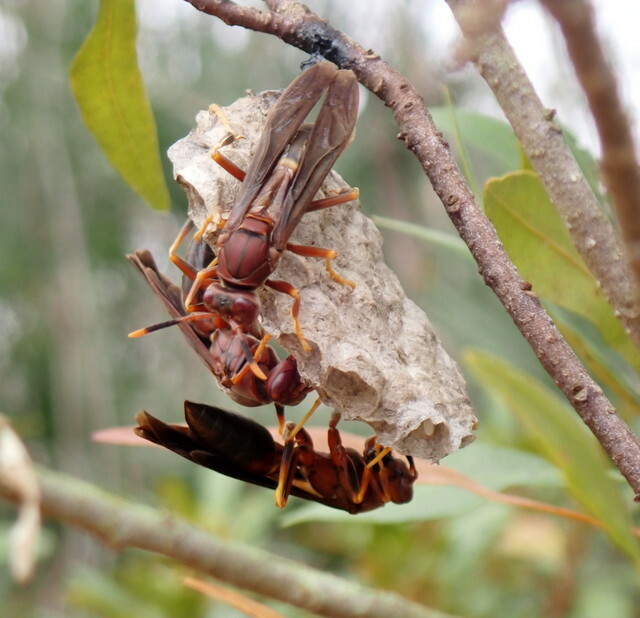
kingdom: Animalia
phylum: Arthropoda
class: Insecta
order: Hymenoptera
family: Eumenidae
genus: Polistes
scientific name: Polistes annularis
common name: Ringed paper wasp
